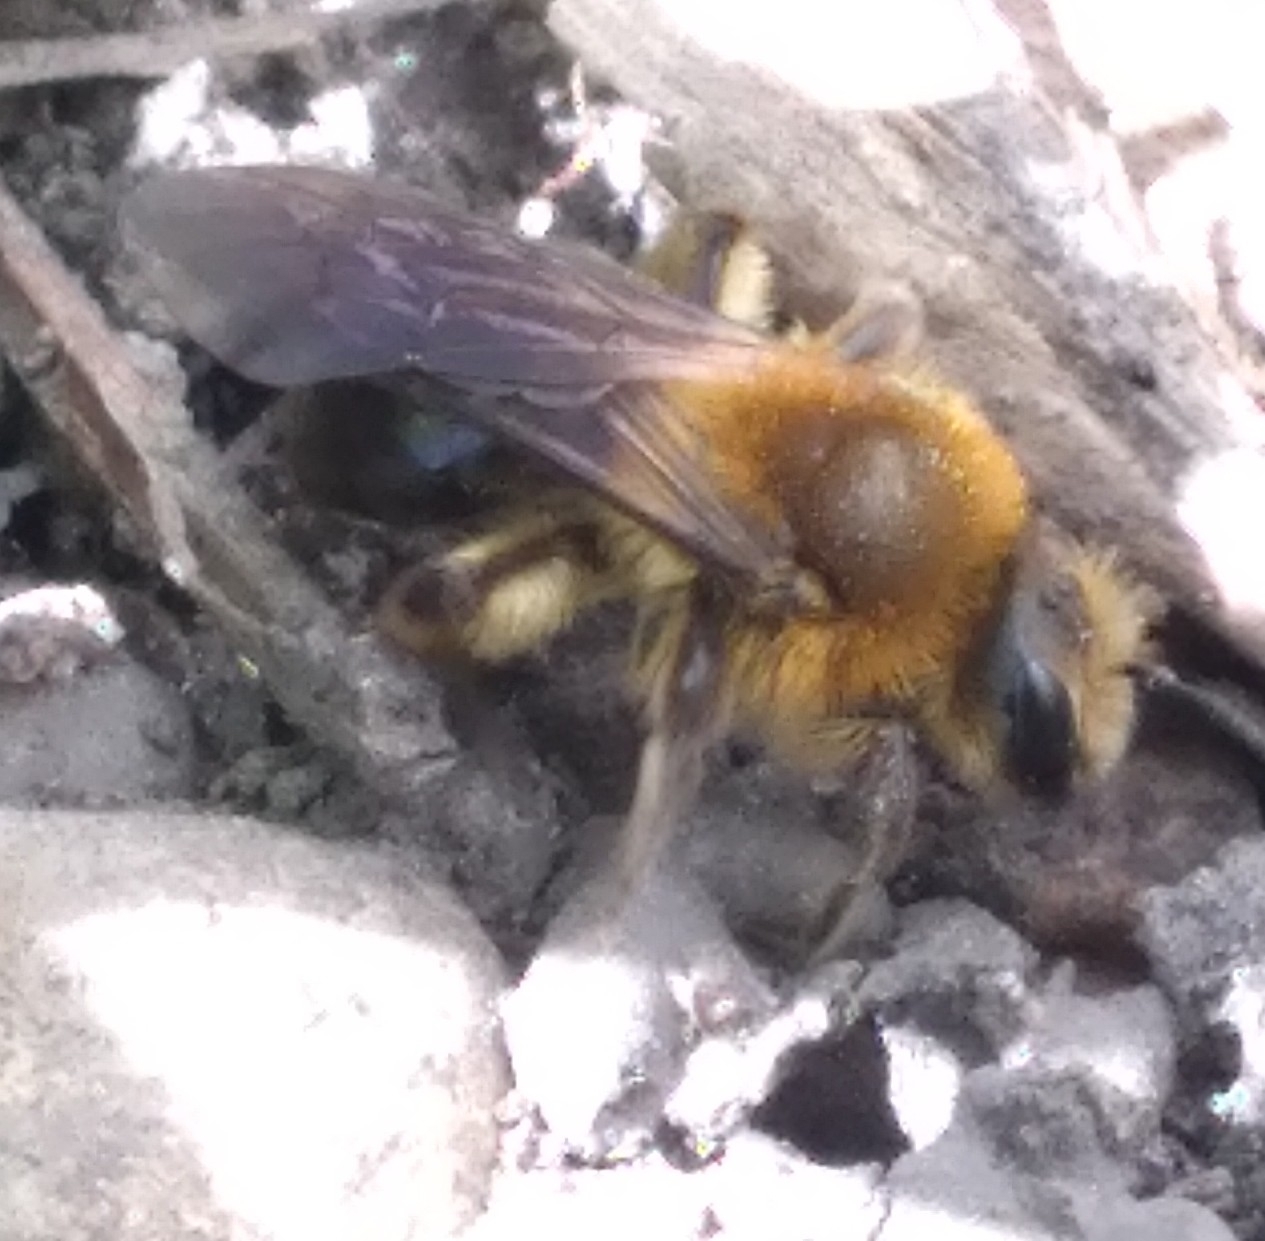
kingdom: Animalia
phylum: Arthropoda
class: Insecta
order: Hymenoptera
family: Andrenidae
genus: Andrena
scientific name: Andrena dunningi
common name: Dunning's miner
